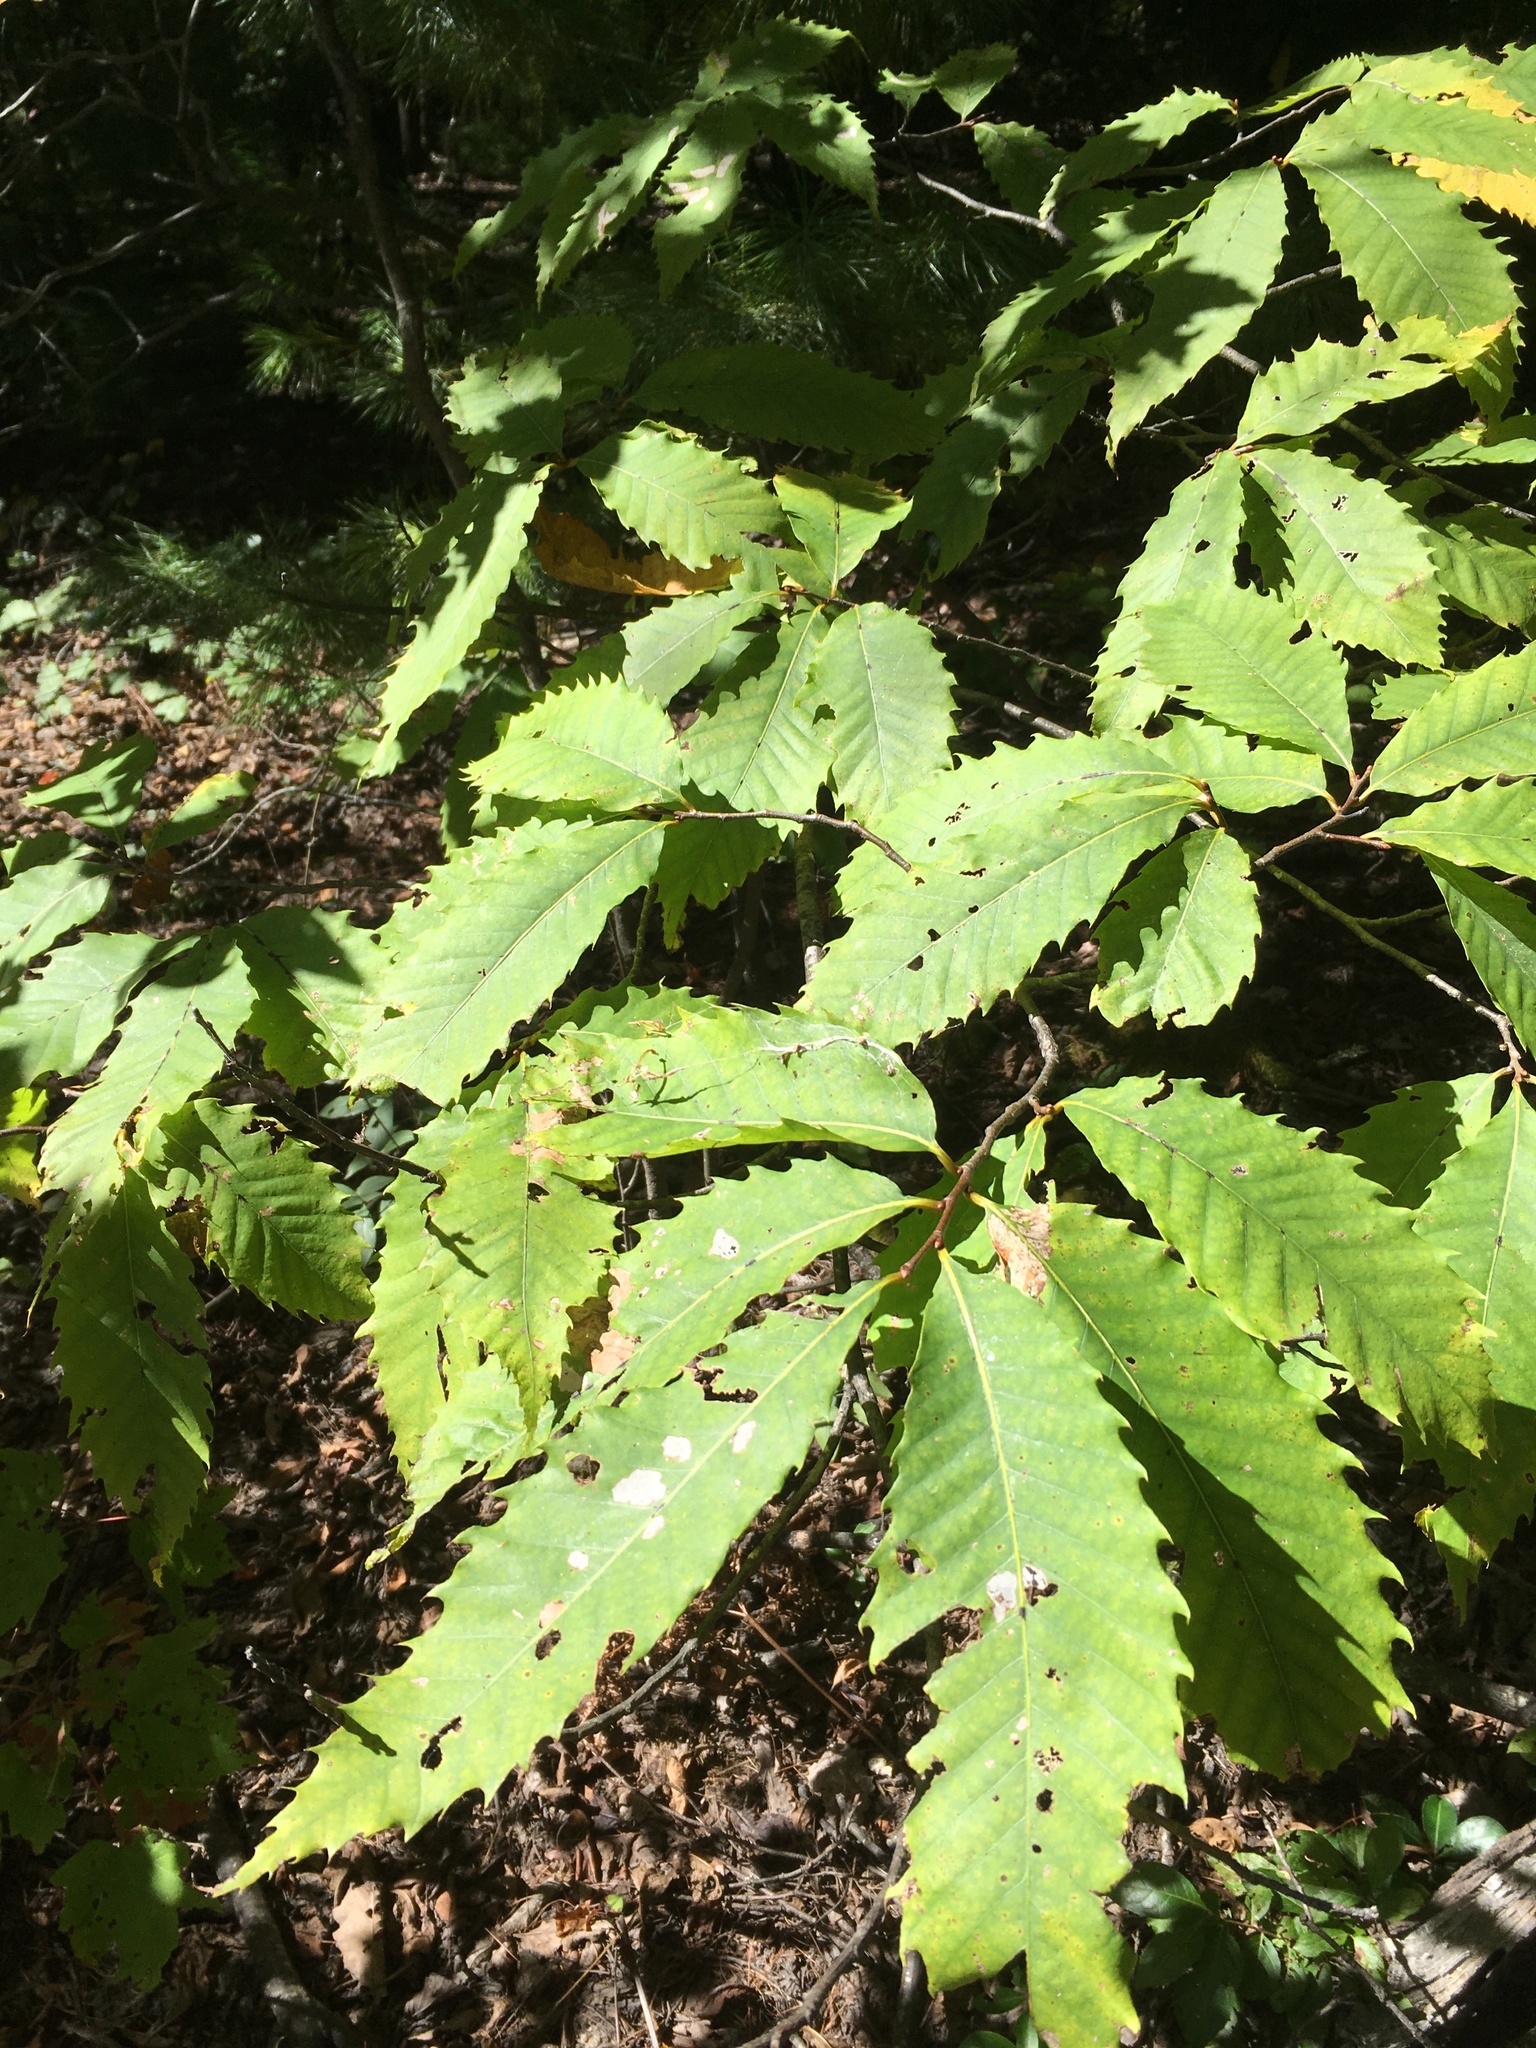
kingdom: Plantae
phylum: Tracheophyta
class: Magnoliopsida
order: Fagales
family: Fagaceae
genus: Castanea
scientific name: Castanea dentata
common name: American chestnut
